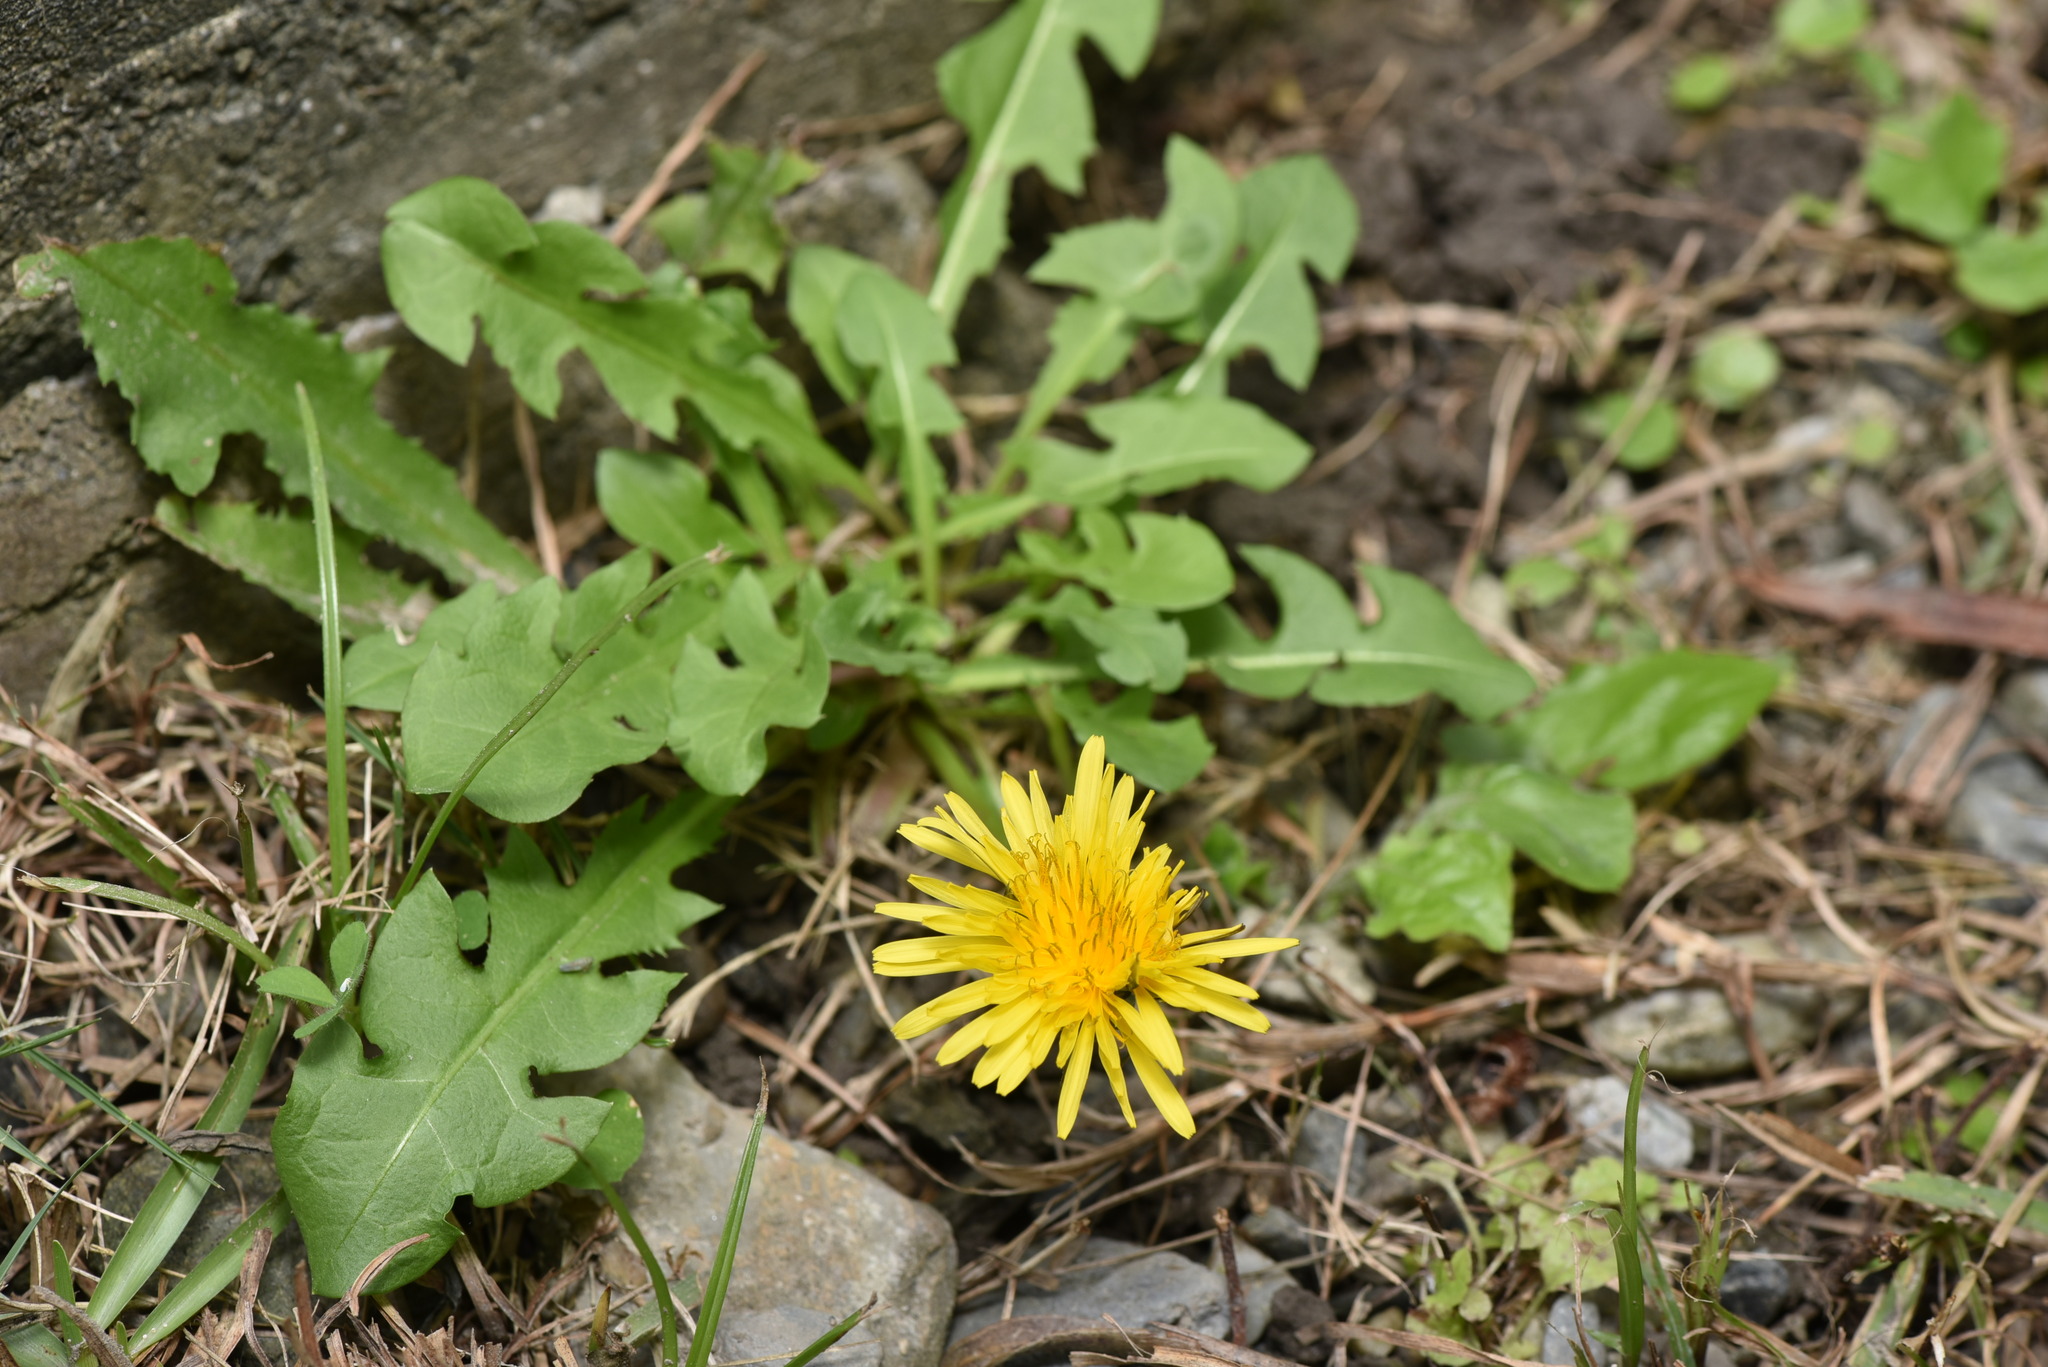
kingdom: Plantae
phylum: Tracheophyta
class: Magnoliopsida
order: Asterales
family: Asteraceae
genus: Taraxacum
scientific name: Taraxacum officinale
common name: Common dandelion
